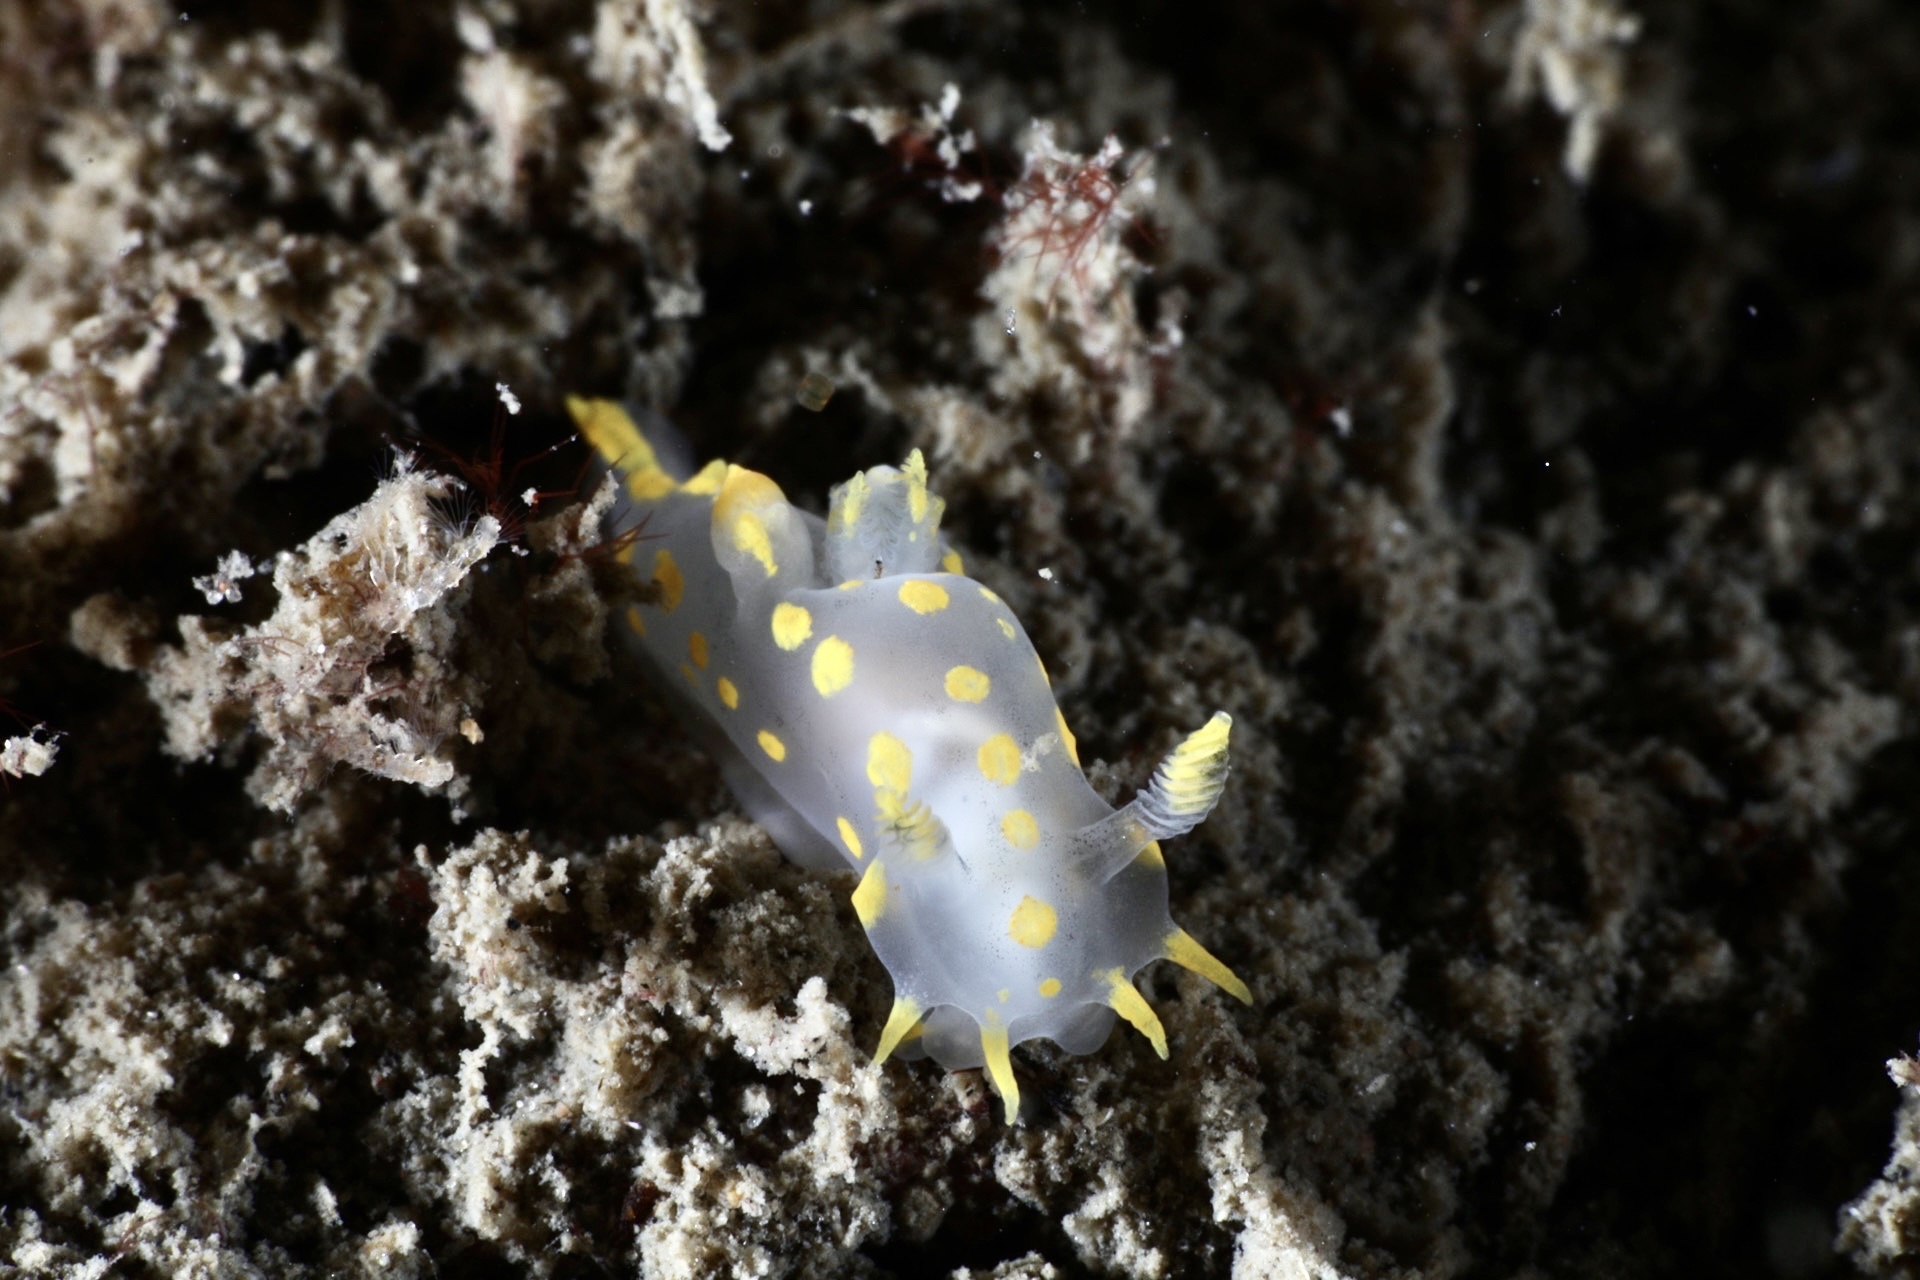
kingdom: Animalia
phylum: Mollusca
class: Gastropoda
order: Nudibranchia
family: Polyceridae
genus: Polycera
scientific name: Polycera quadrilineata
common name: Four-striped polycera
